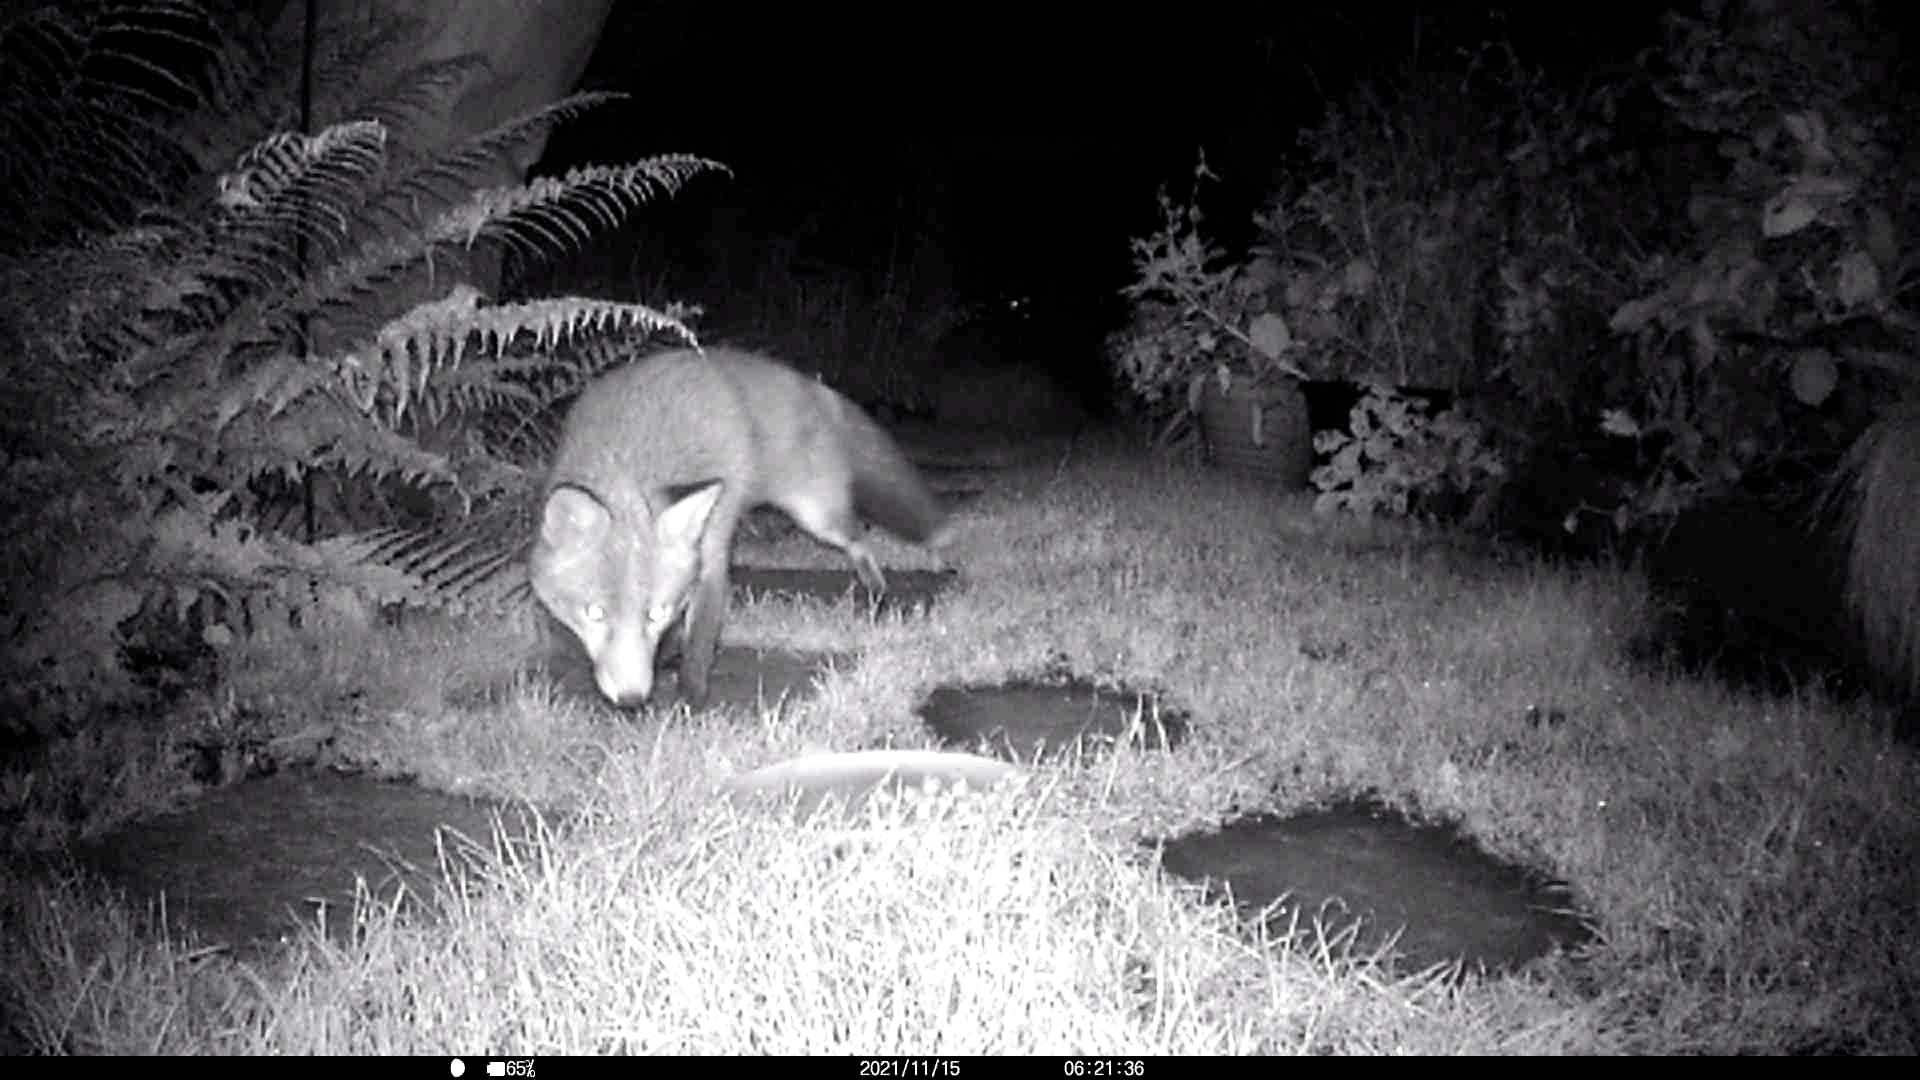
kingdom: Animalia
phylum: Chordata
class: Mammalia
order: Carnivora
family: Canidae
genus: Vulpes
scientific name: Vulpes vulpes
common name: Red fox
